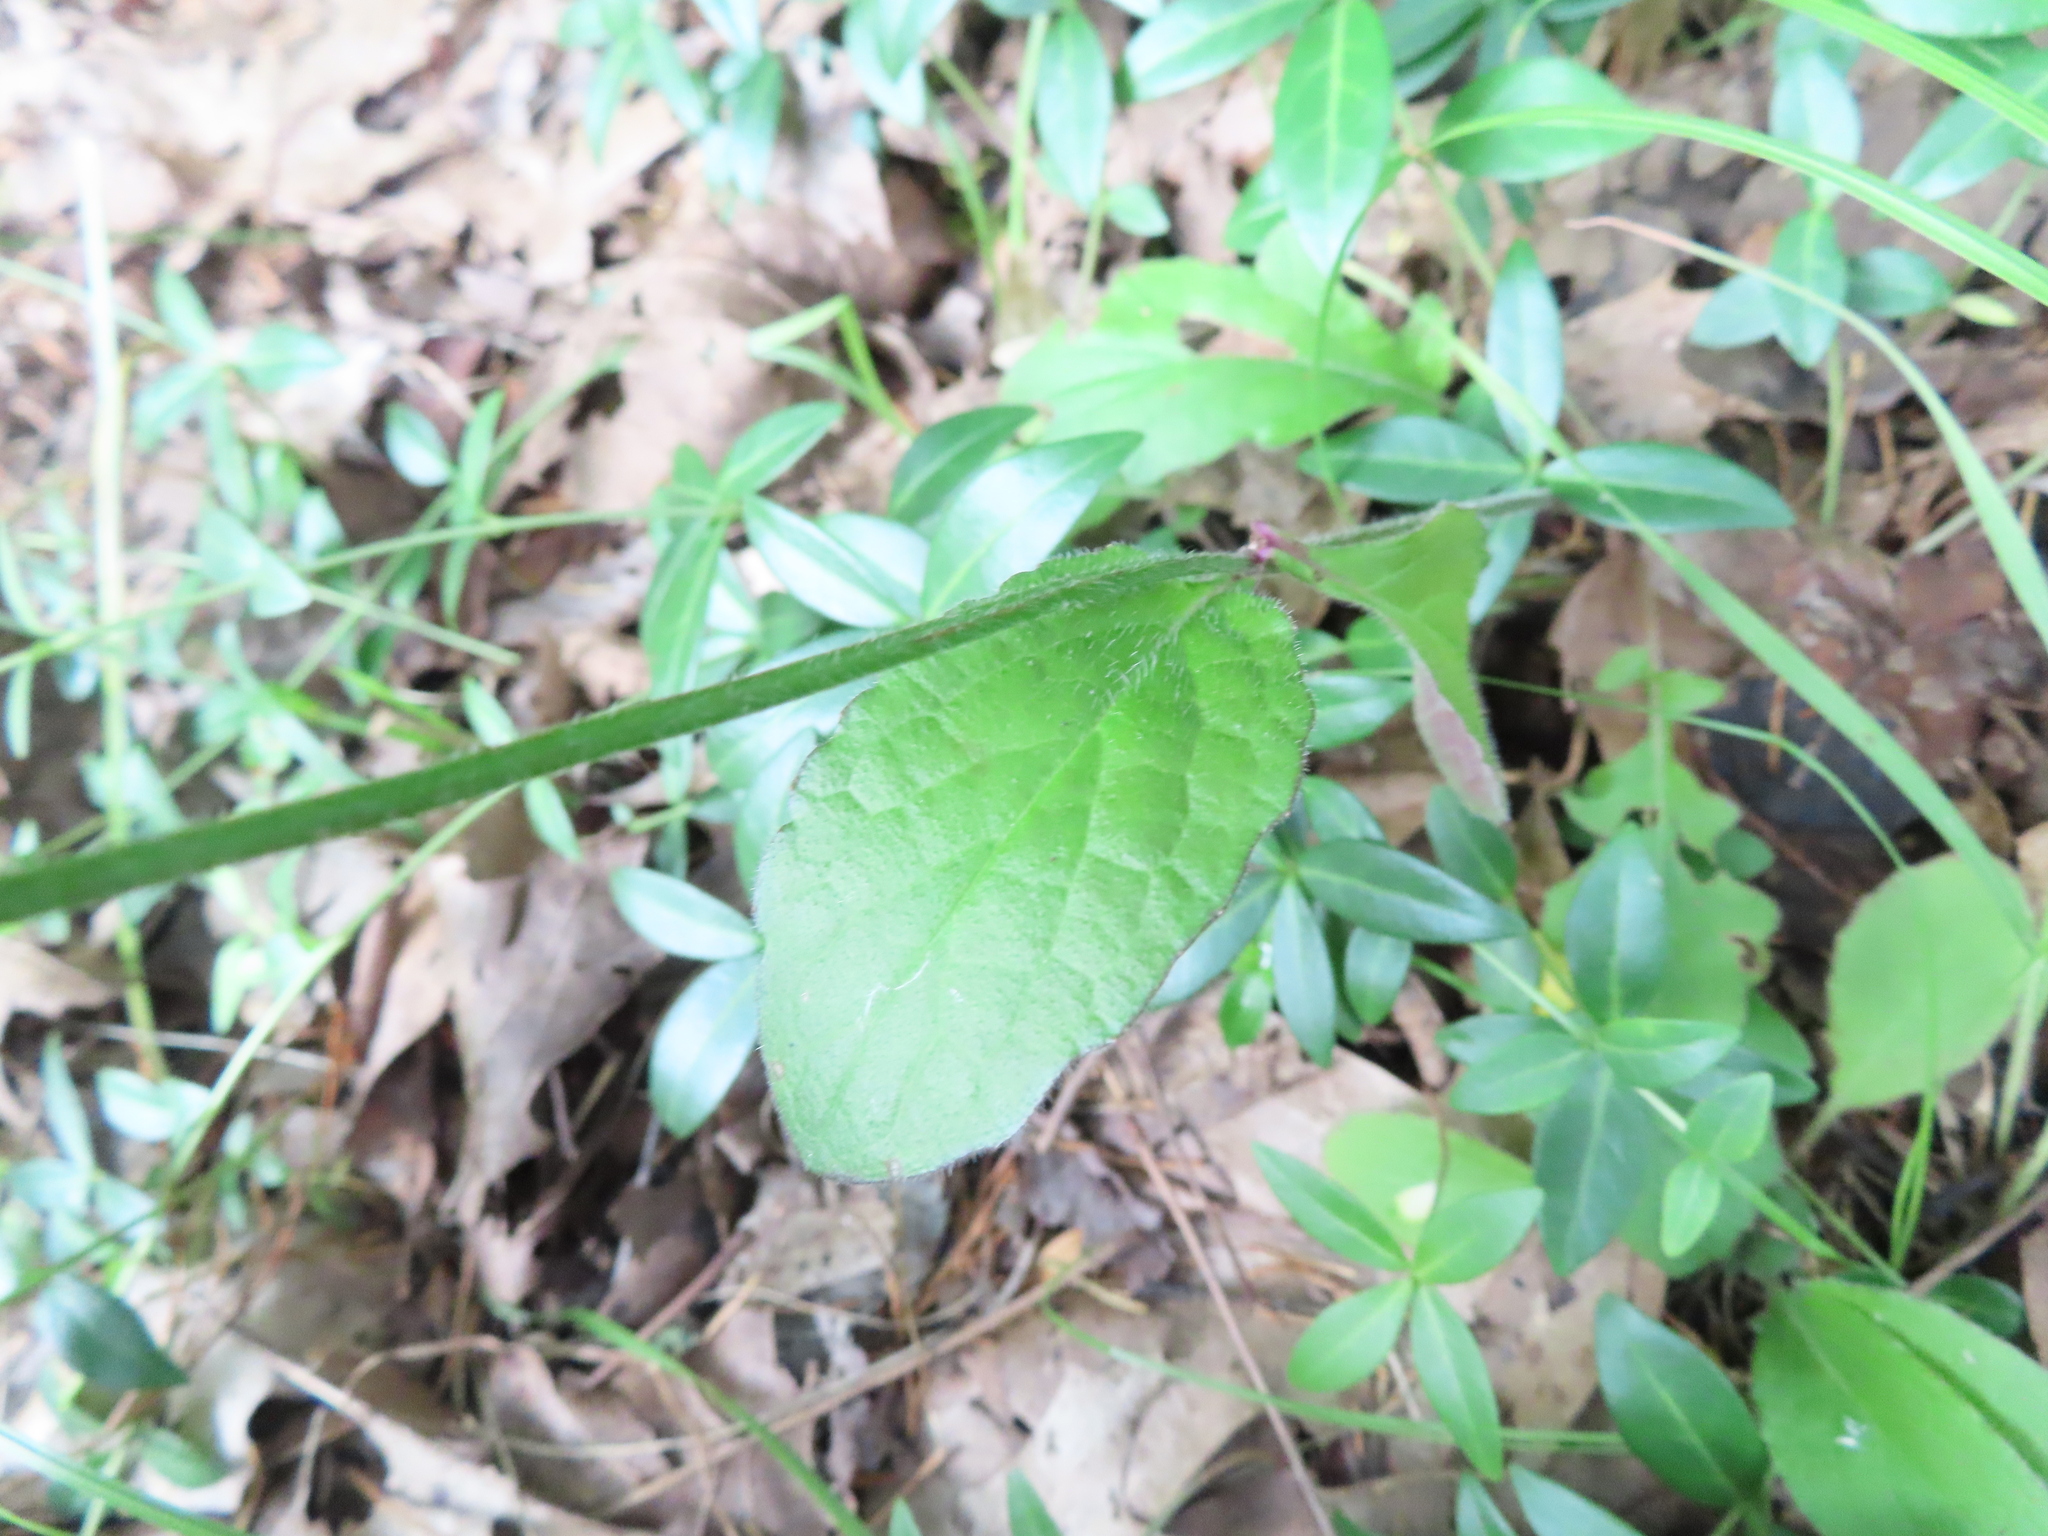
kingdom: Plantae
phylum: Tracheophyta
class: Magnoliopsida
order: Lamiales
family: Lamiaceae
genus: Salvia
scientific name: Salvia lyrata
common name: Cancerweed
